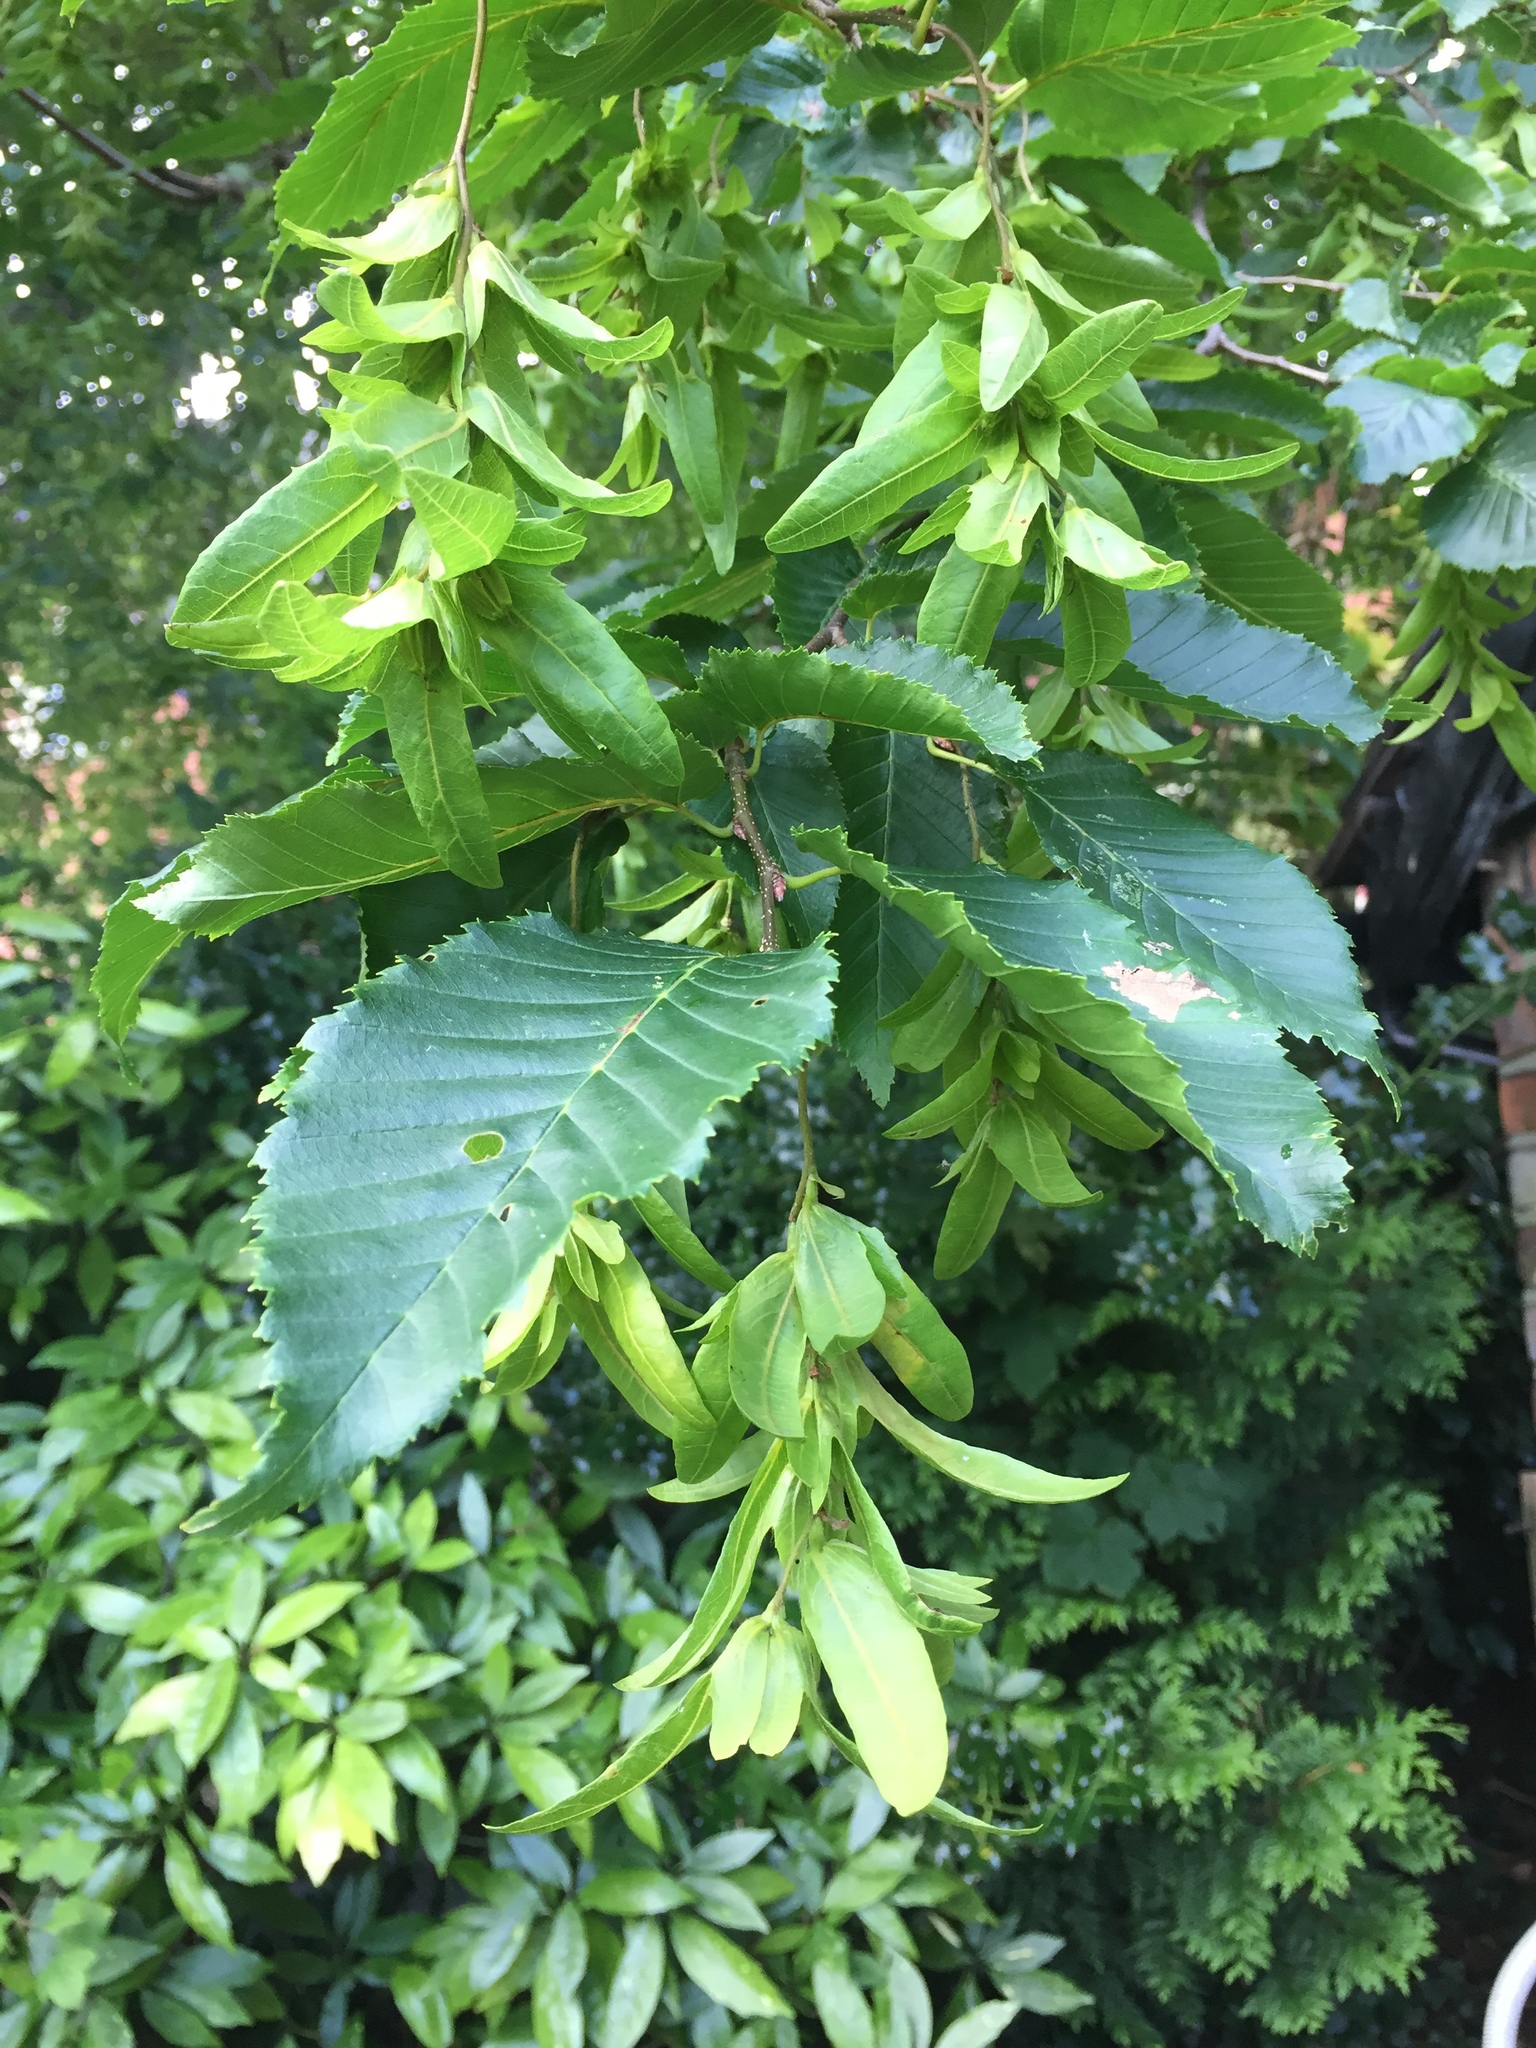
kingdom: Plantae
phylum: Tracheophyta
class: Magnoliopsida
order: Fagales
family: Betulaceae
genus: Carpinus
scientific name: Carpinus betulus
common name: Hornbeam
